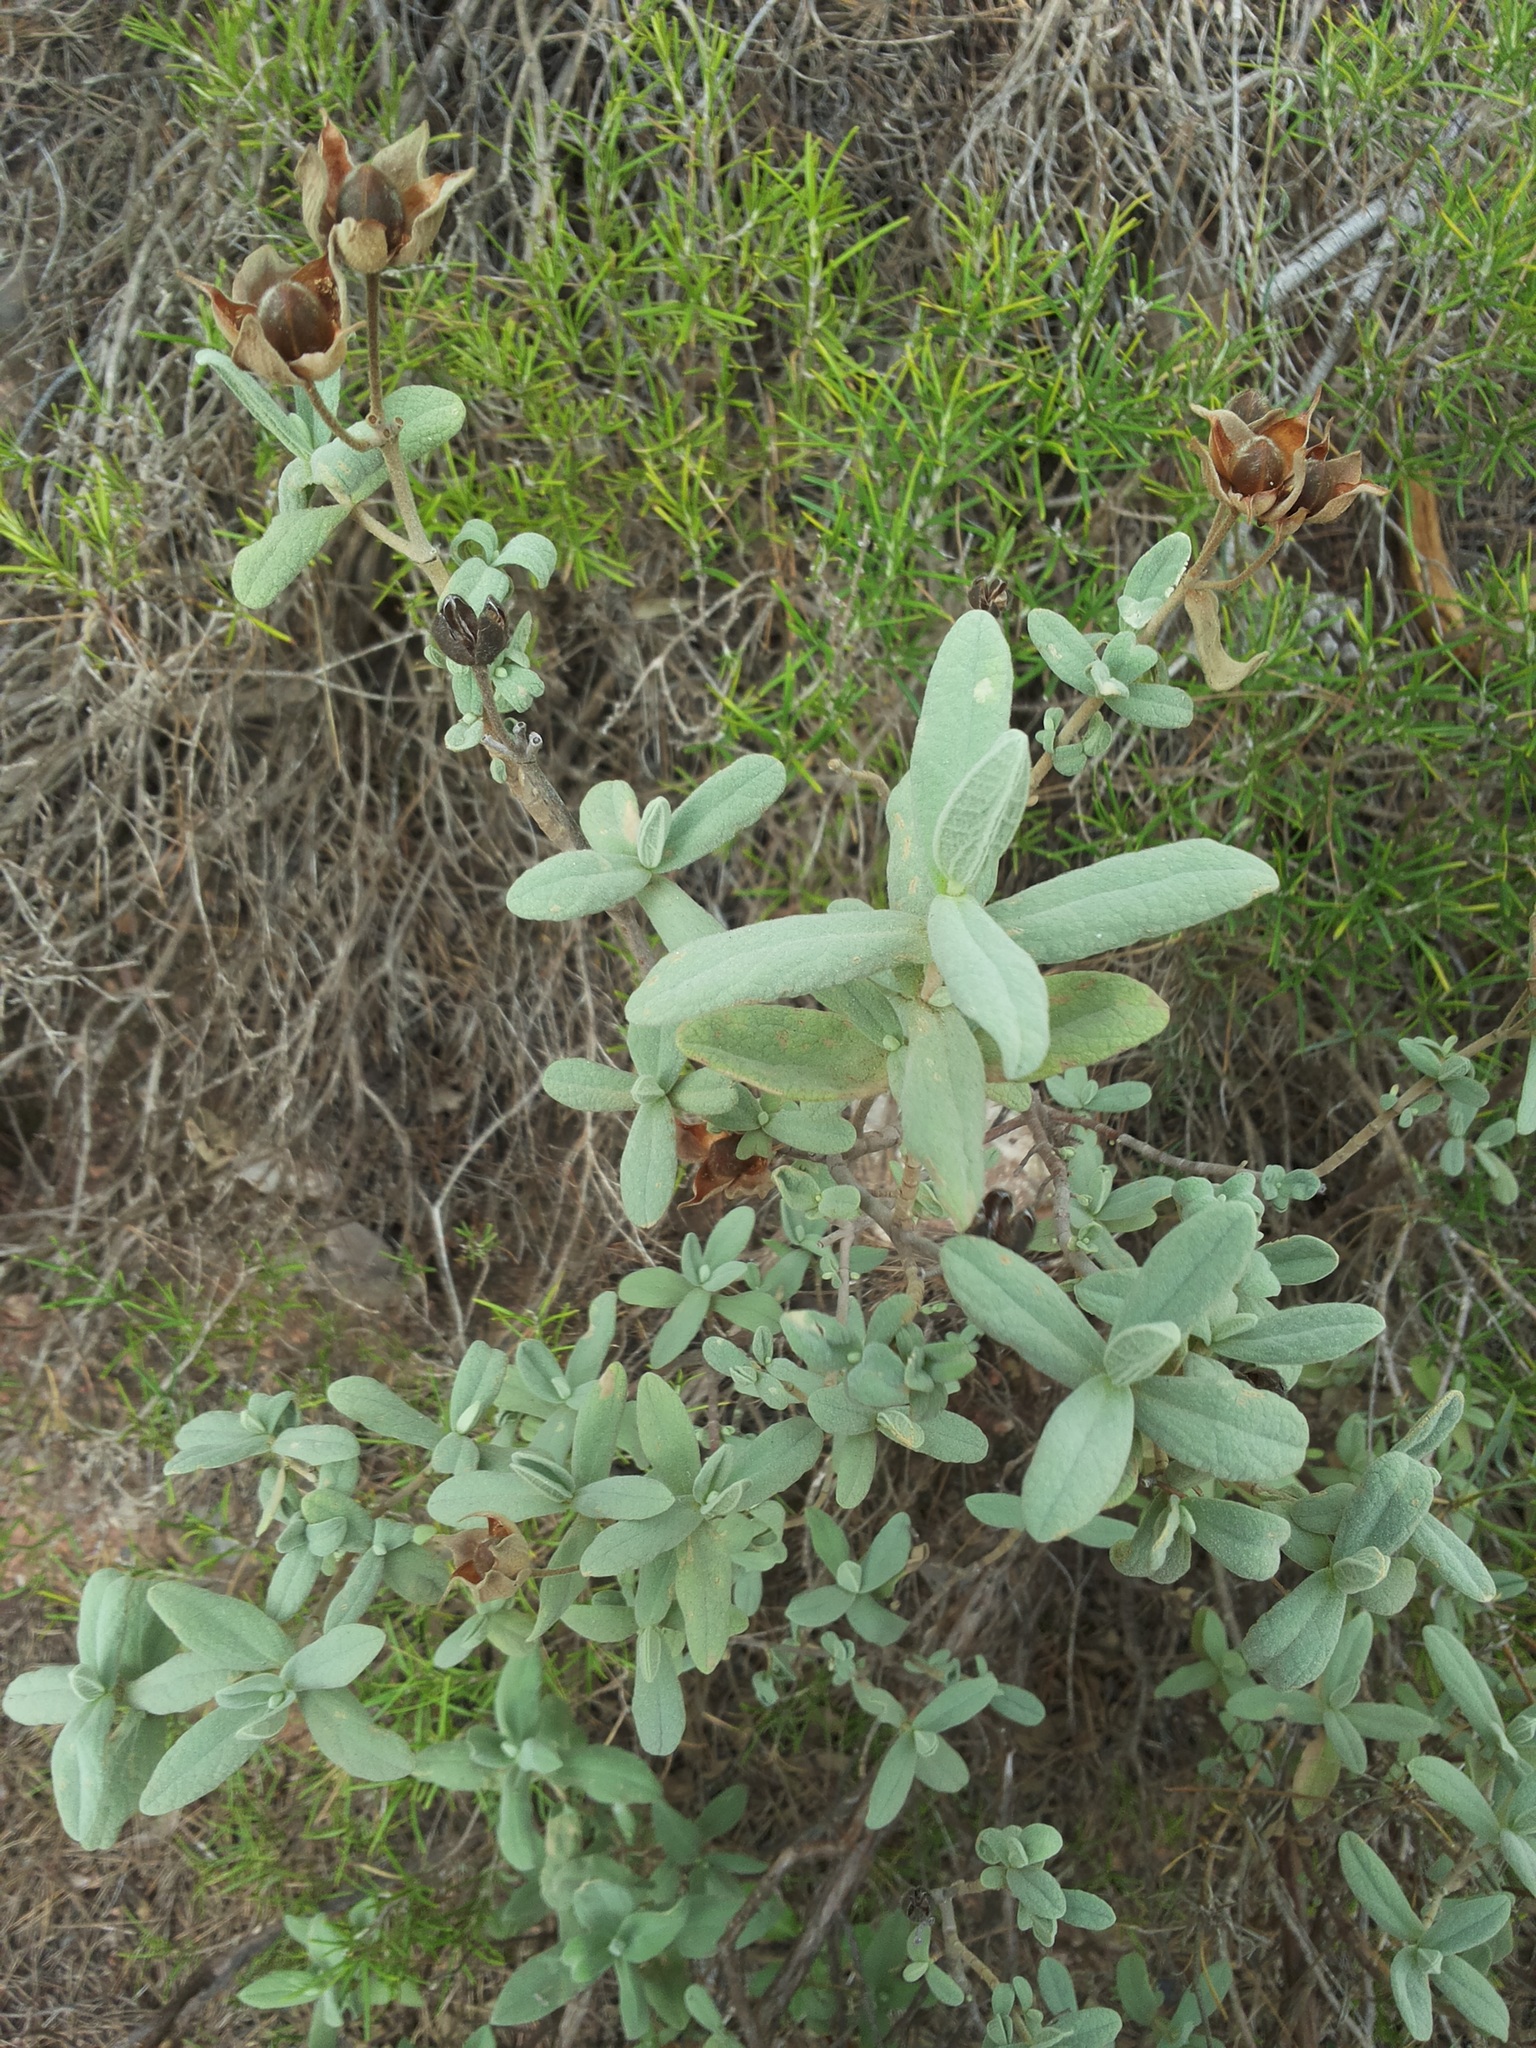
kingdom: Plantae
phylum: Tracheophyta
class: Magnoliopsida
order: Malvales
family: Cistaceae
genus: Cistus
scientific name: Cistus albidus
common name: White-leaf rock-rose
